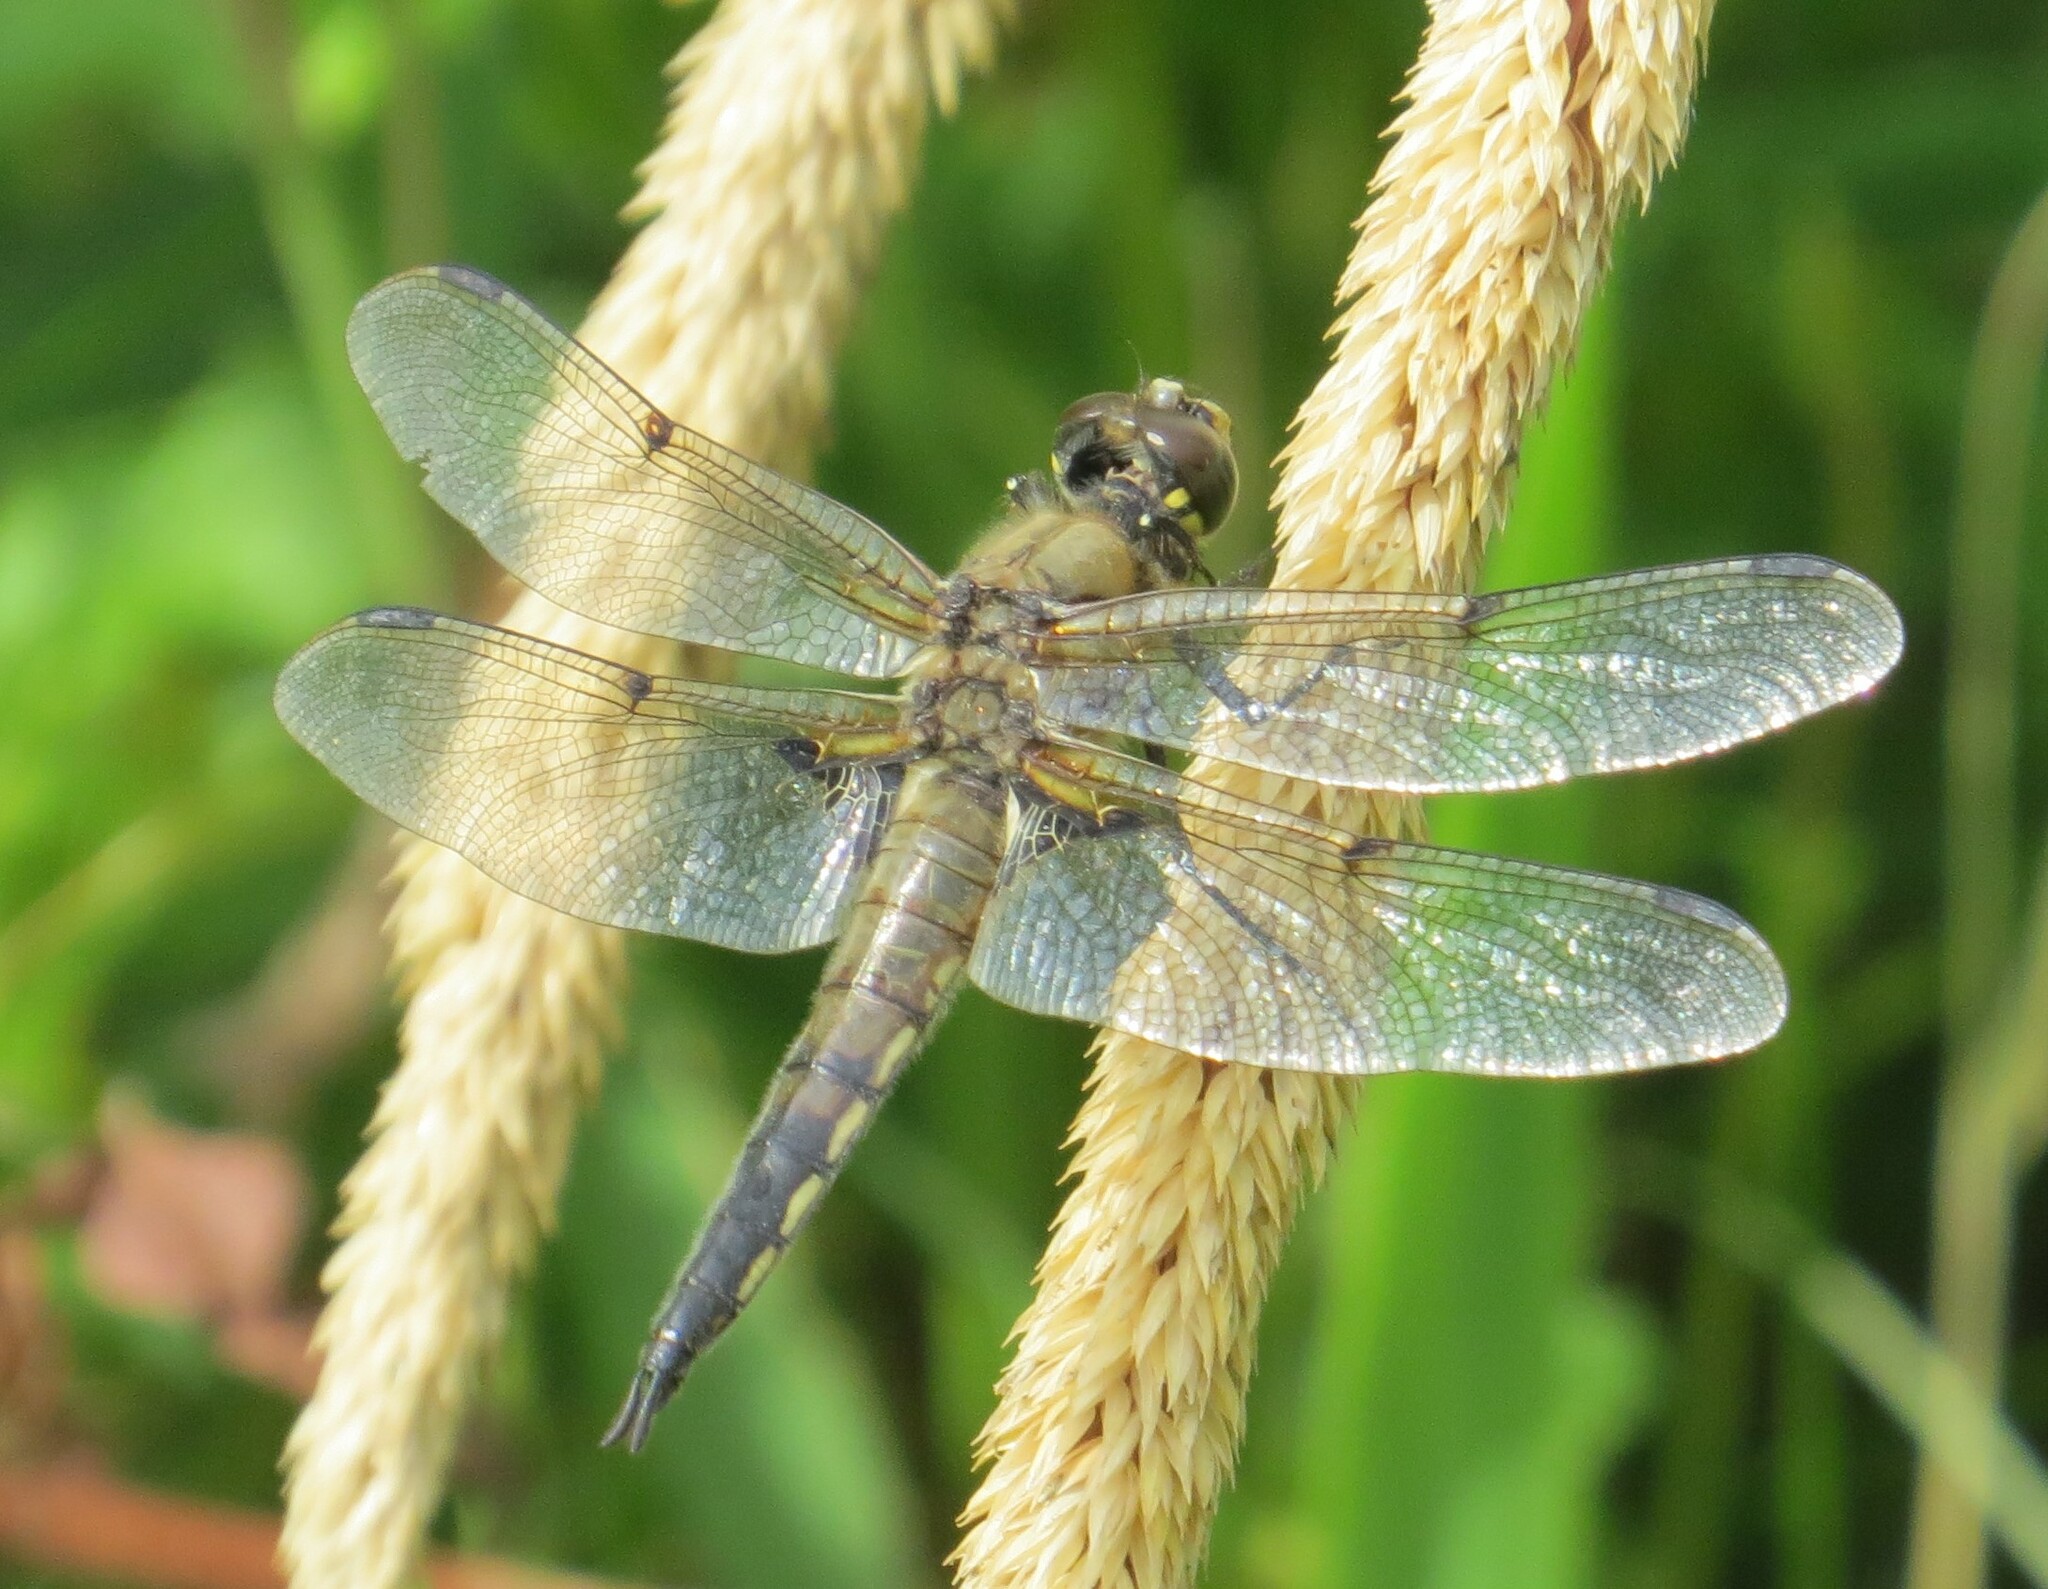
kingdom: Animalia
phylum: Arthropoda
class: Insecta
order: Odonata
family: Libellulidae
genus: Libellula
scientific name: Libellula quadrimaculata
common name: Four-spotted chaser
